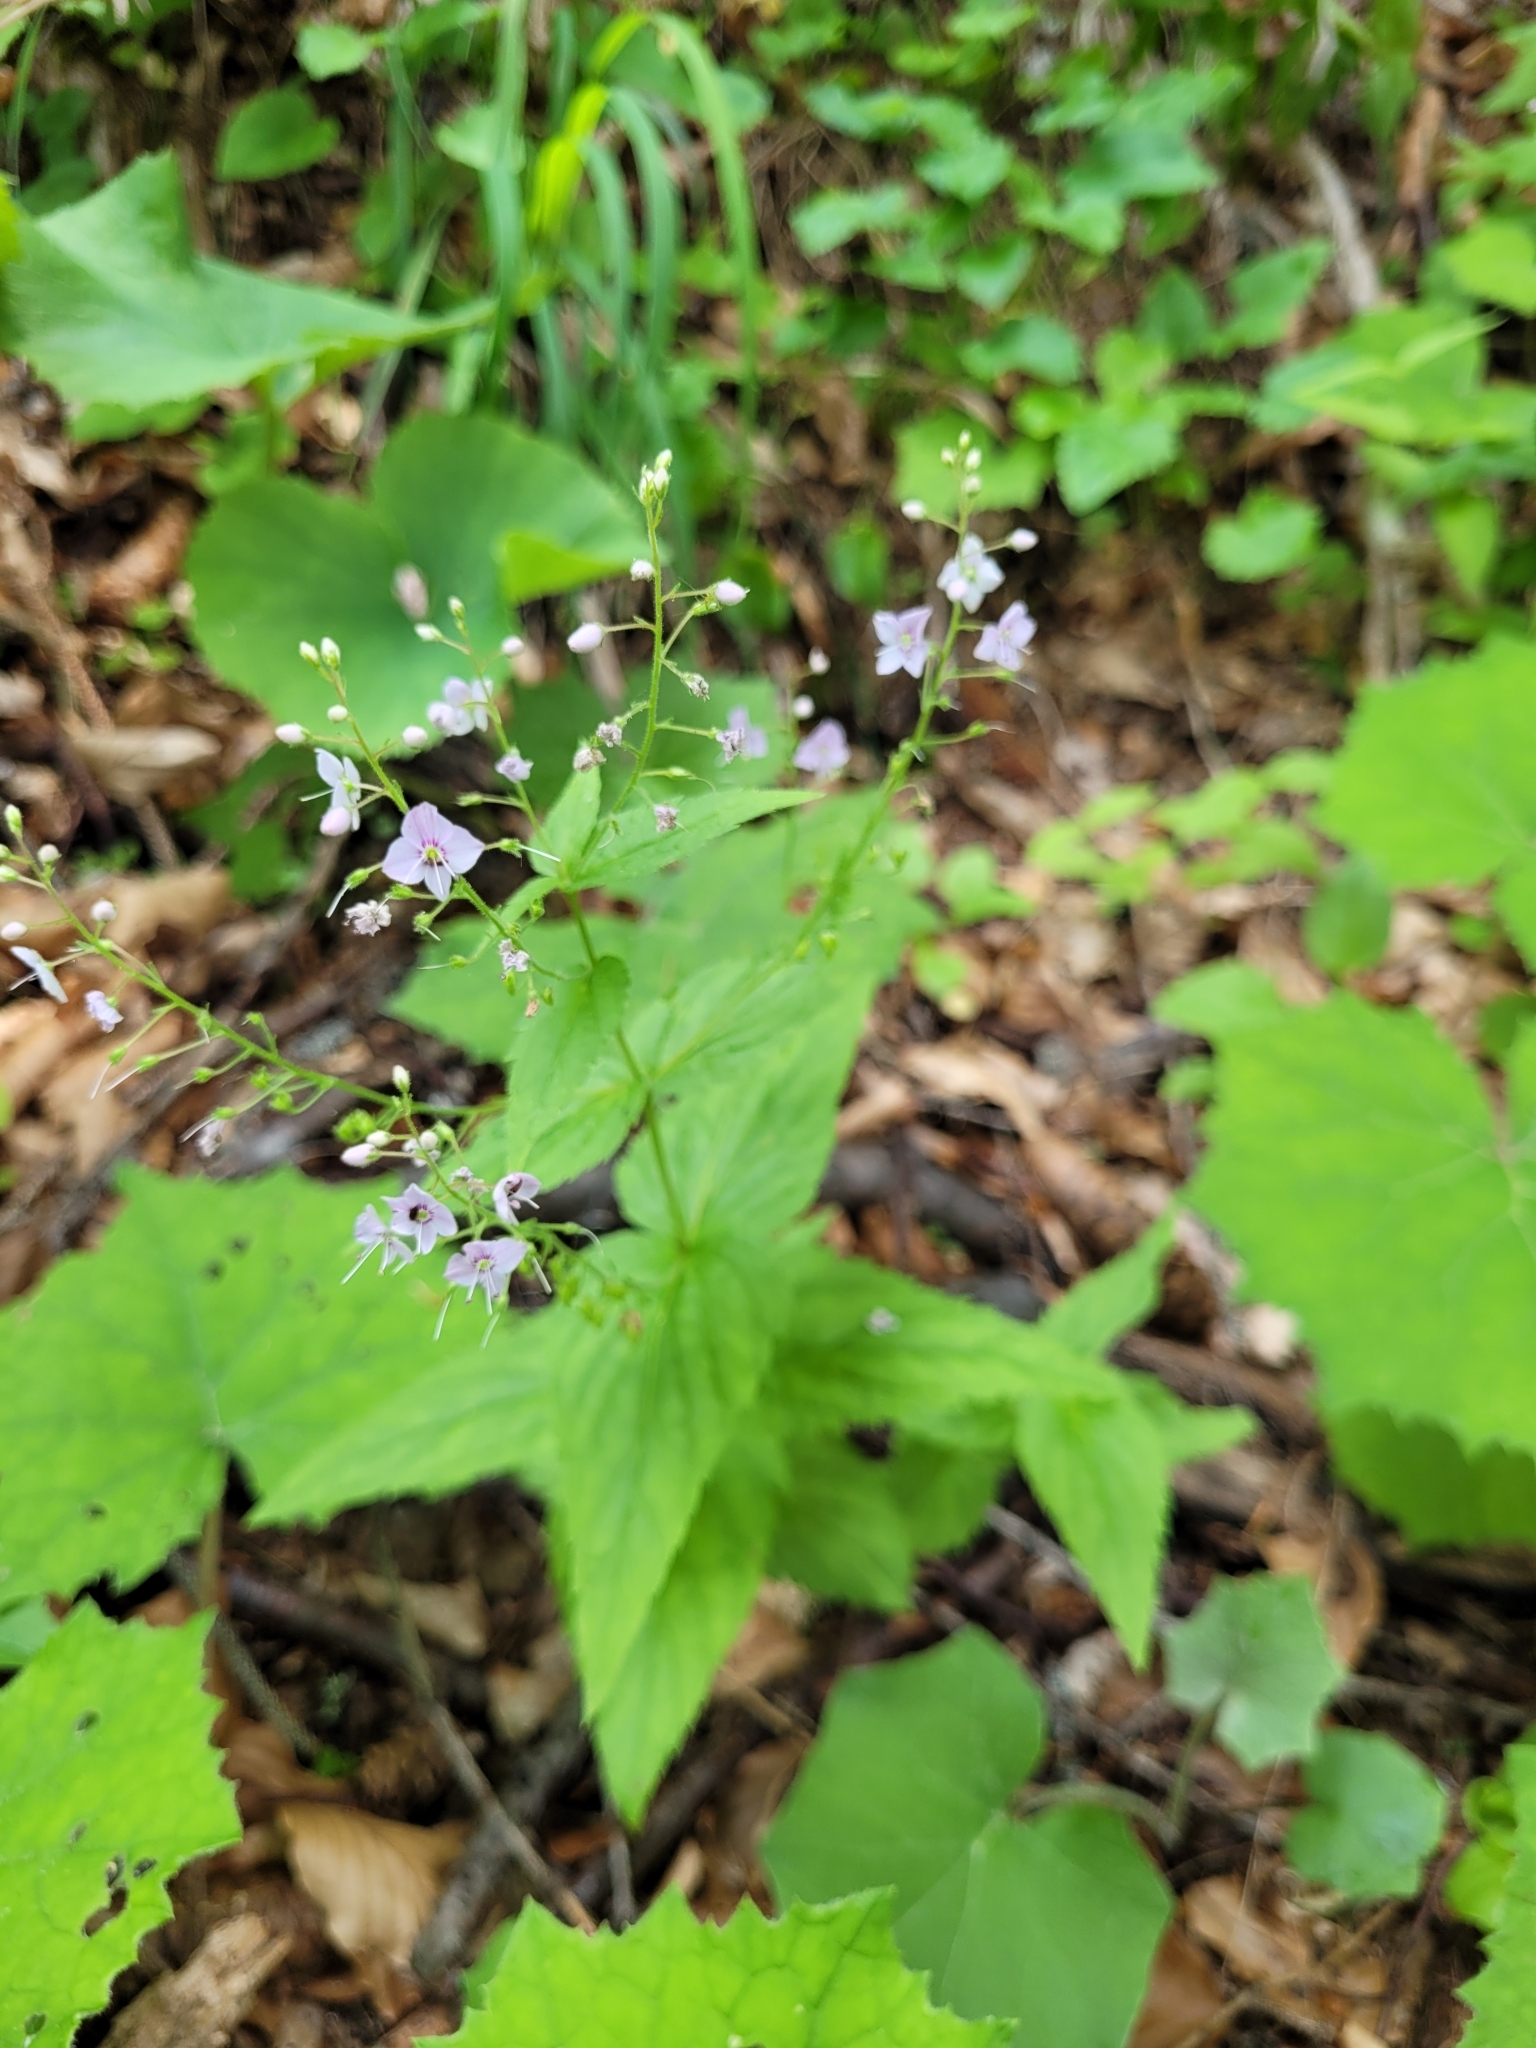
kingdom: Plantae
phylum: Tracheophyta
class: Magnoliopsida
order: Lamiales
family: Plantaginaceae
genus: Veronica
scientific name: Veronica urticifolia
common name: Nettle-leaf speedwell
